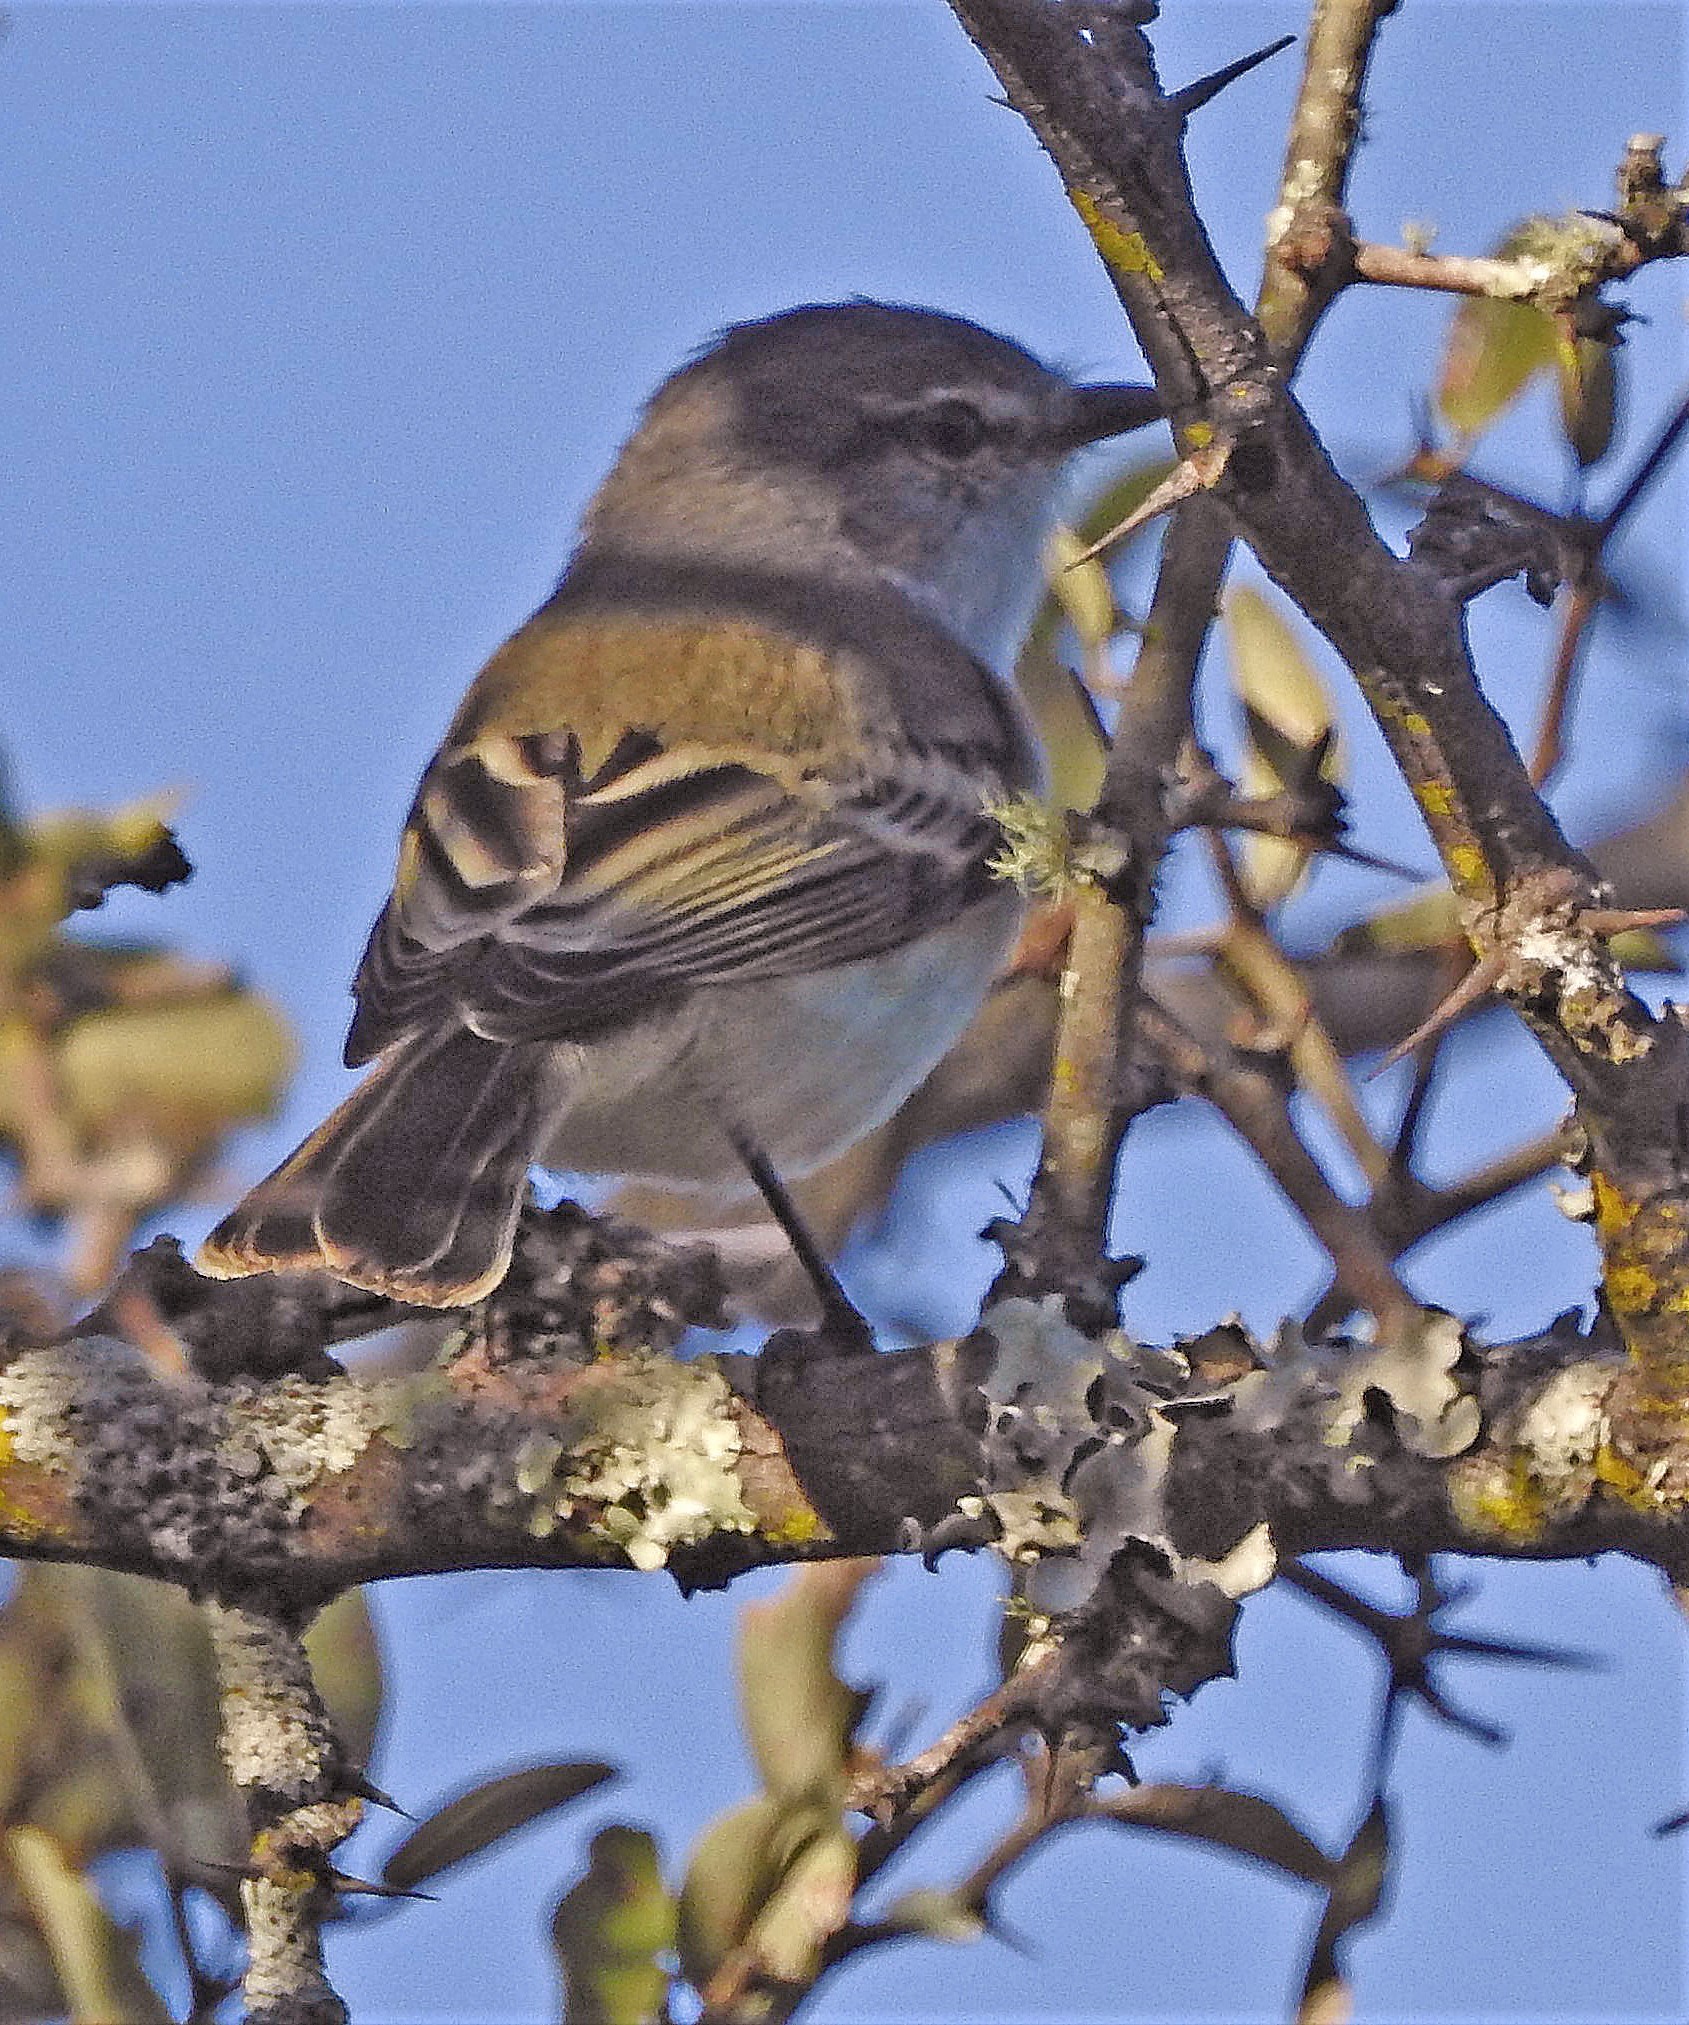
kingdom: Animalia
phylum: Chordata
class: Aves
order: Passeriformes
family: Tyrannidae
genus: Serpophaga
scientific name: Serpophaga griseicapilla
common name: Straneck's tyrannulet
